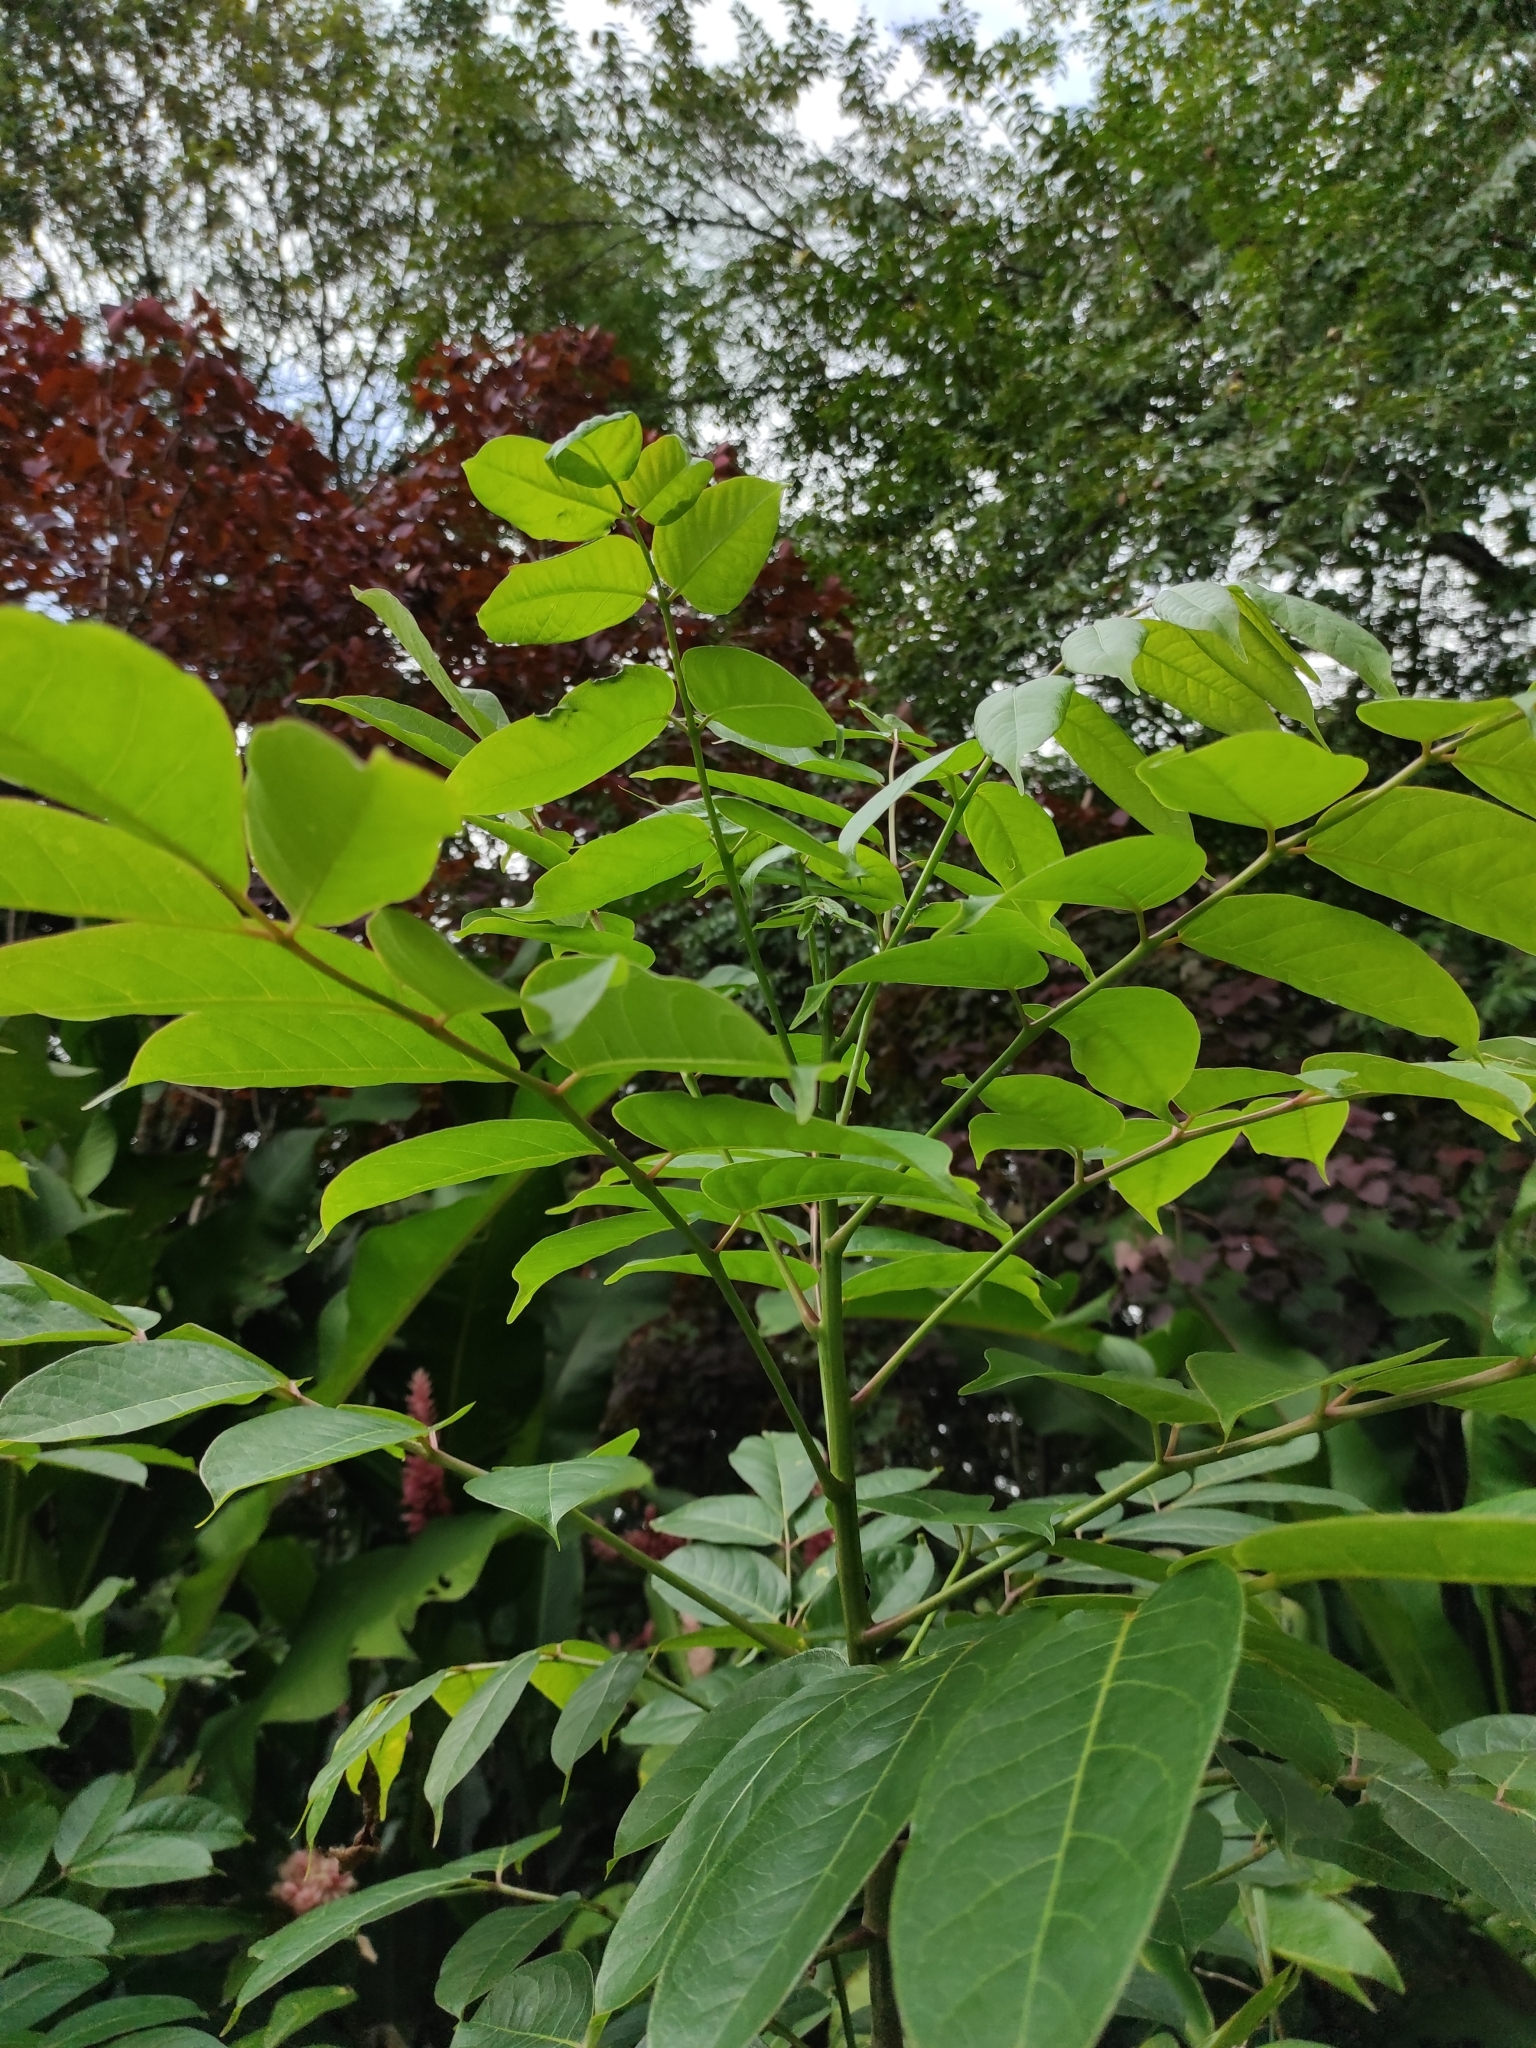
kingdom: Plantae
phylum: Tracheophyta
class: Magnoliopsida
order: Sapindales
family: Burseraceae
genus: Bursera
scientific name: Bursera simaruba
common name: Turpentine tree
